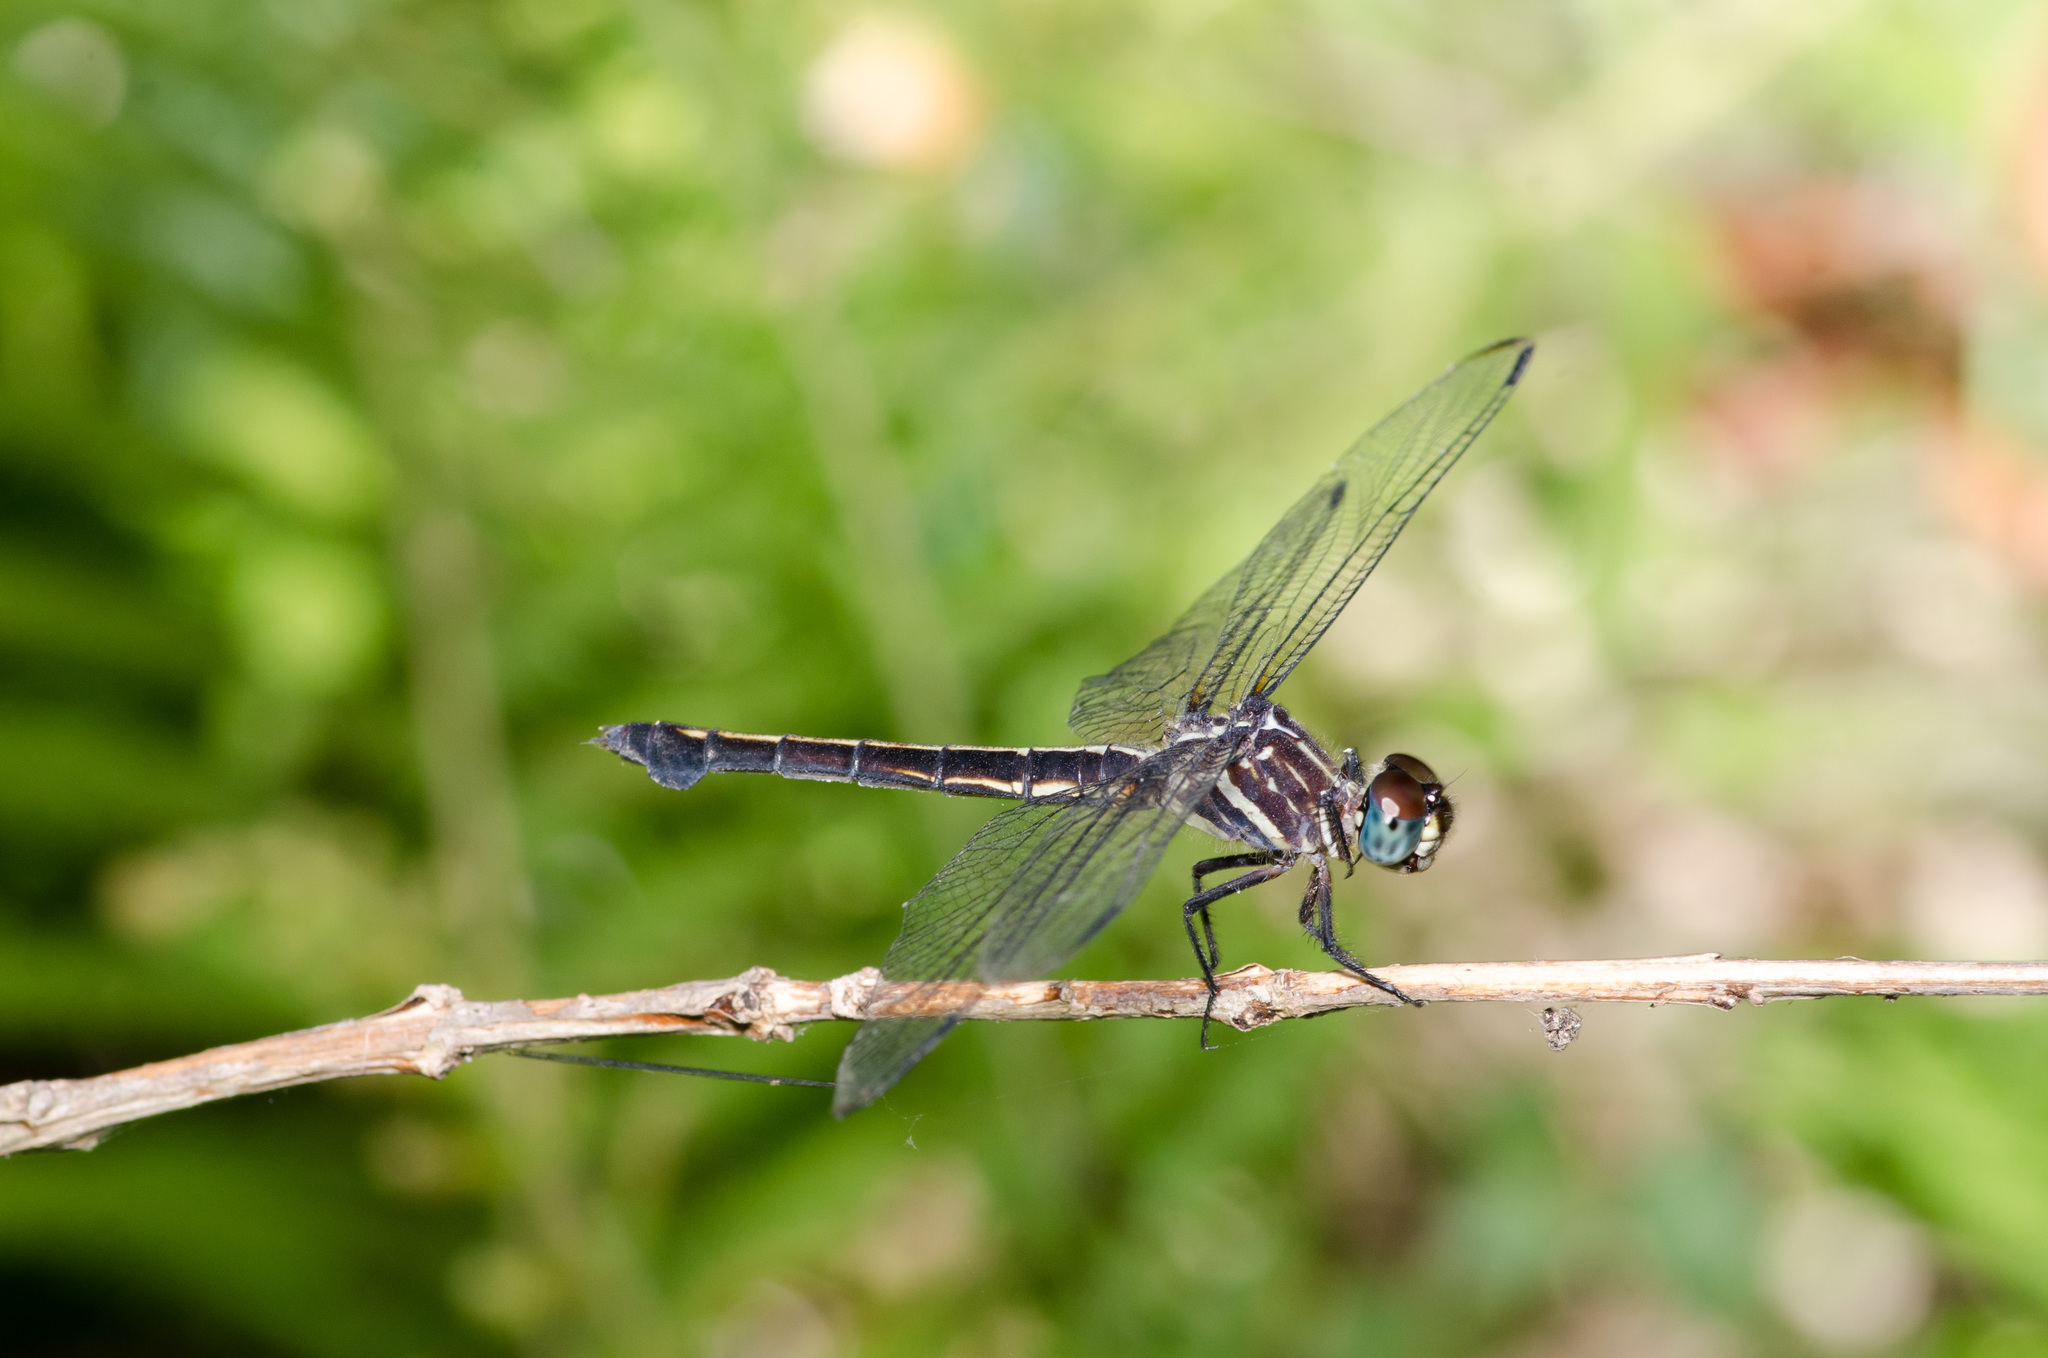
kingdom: Animalia
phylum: Arthropoda
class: Insecta
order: Odonata
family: Libellulidae
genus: Cannaphila
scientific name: Cannaphila insularis
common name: Gray-waisted skimmer
